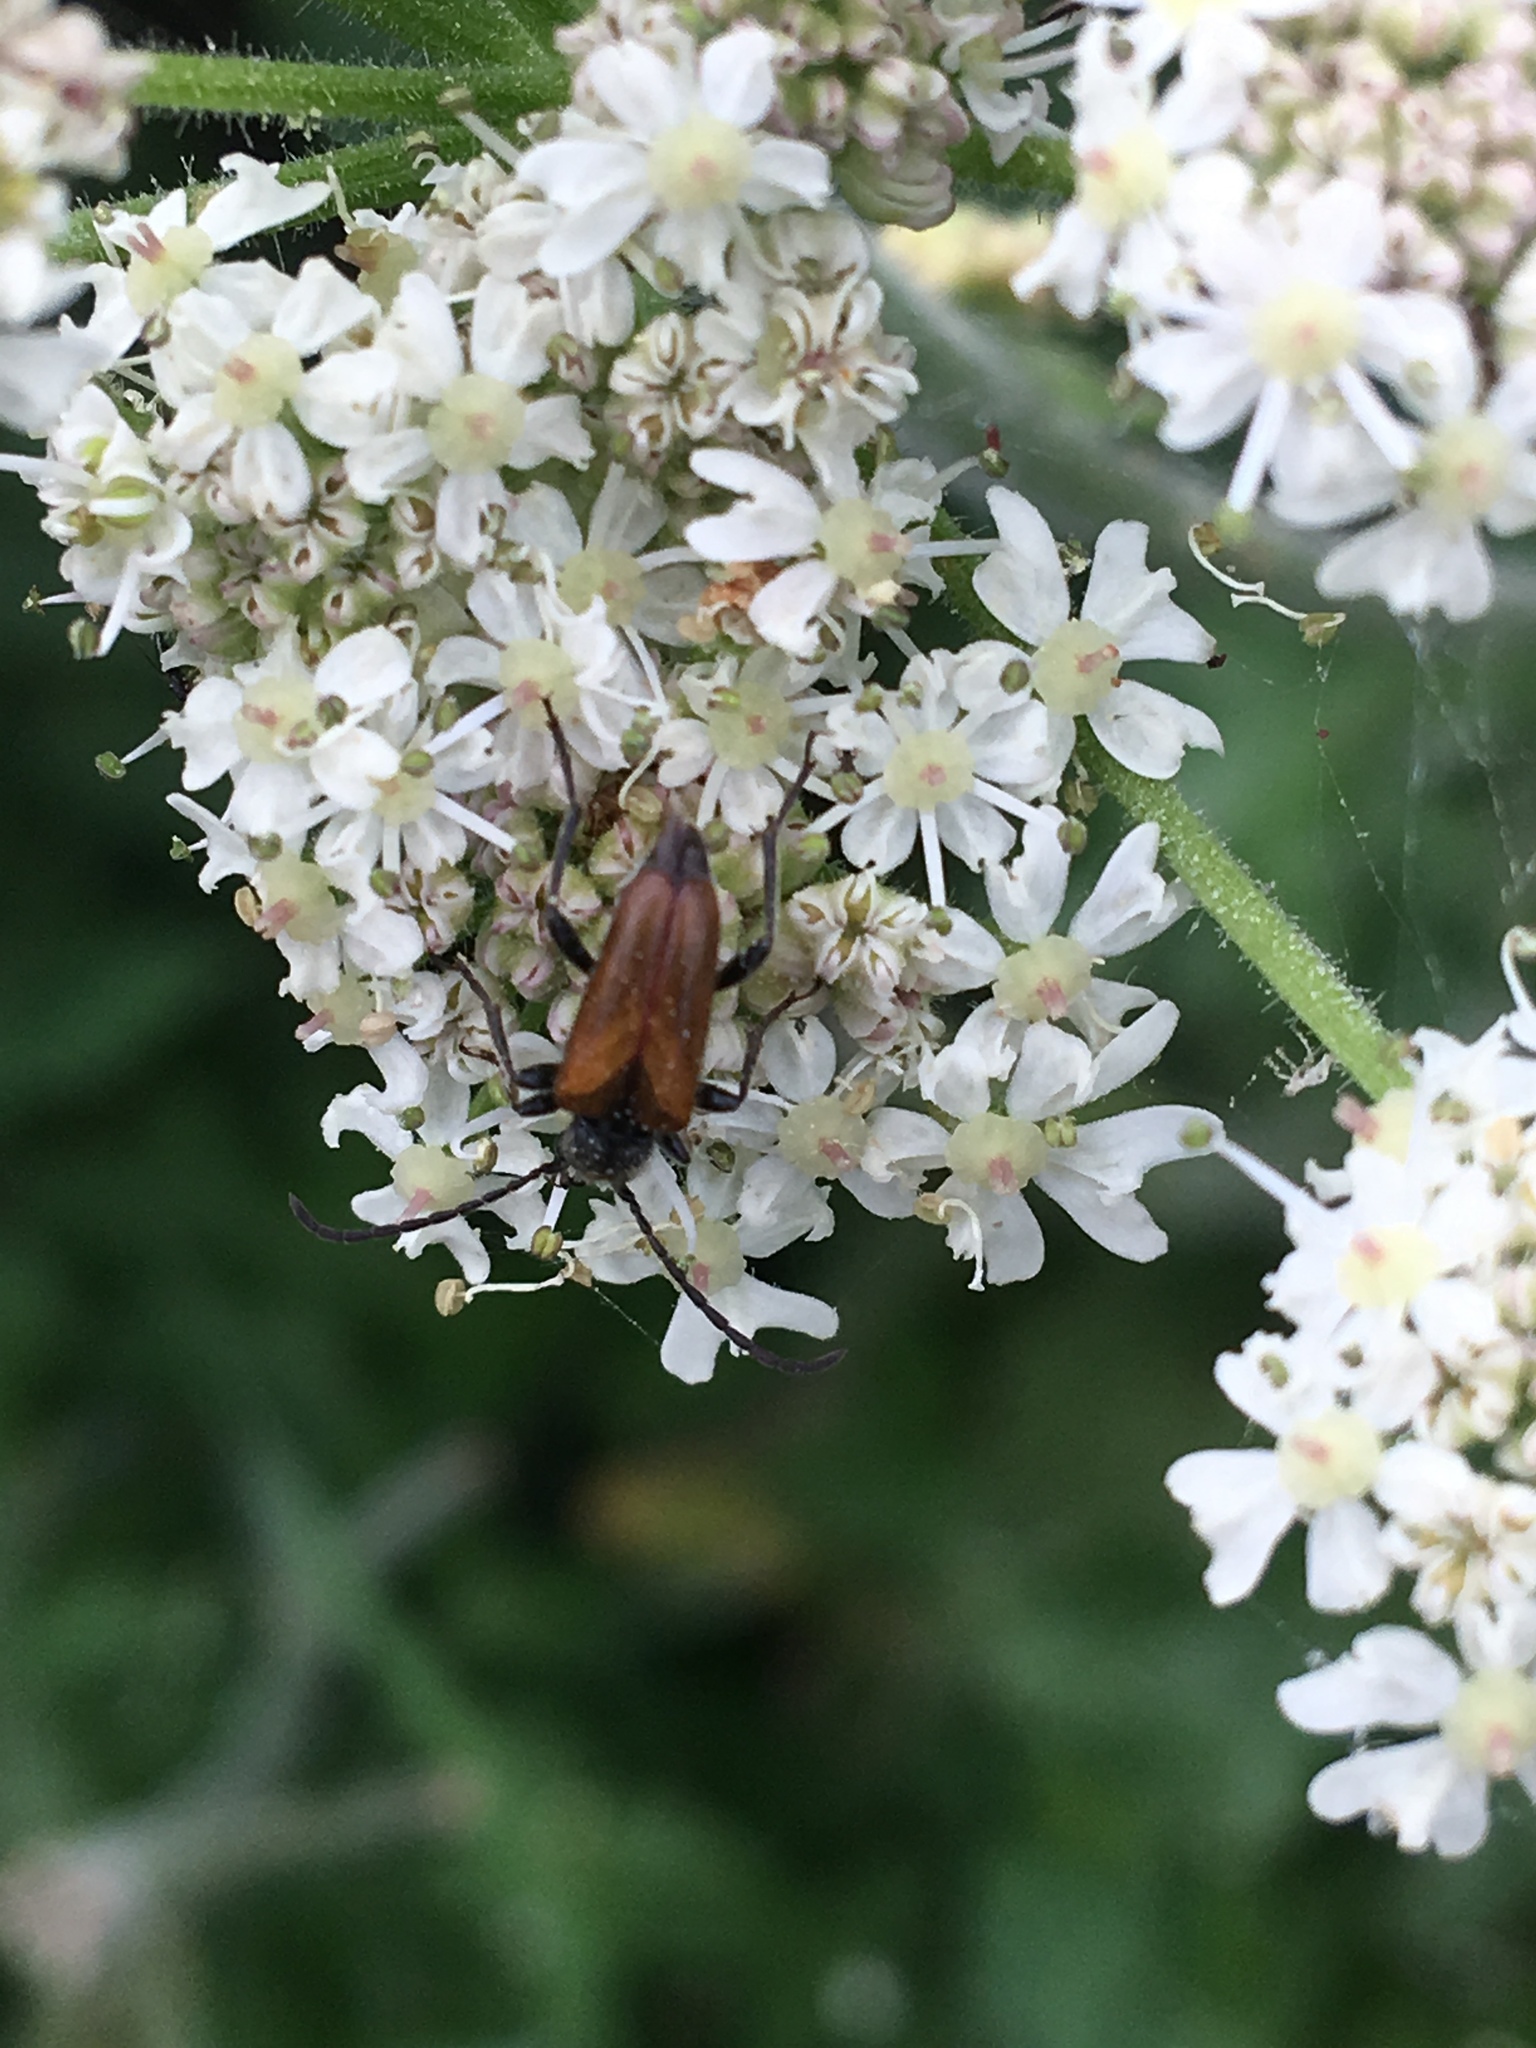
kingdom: Animalia
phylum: Arthropoda
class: Insecta
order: Coleoptera
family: Cerambycidae
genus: Pseudovadonia
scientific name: Pseudovadonia livida
